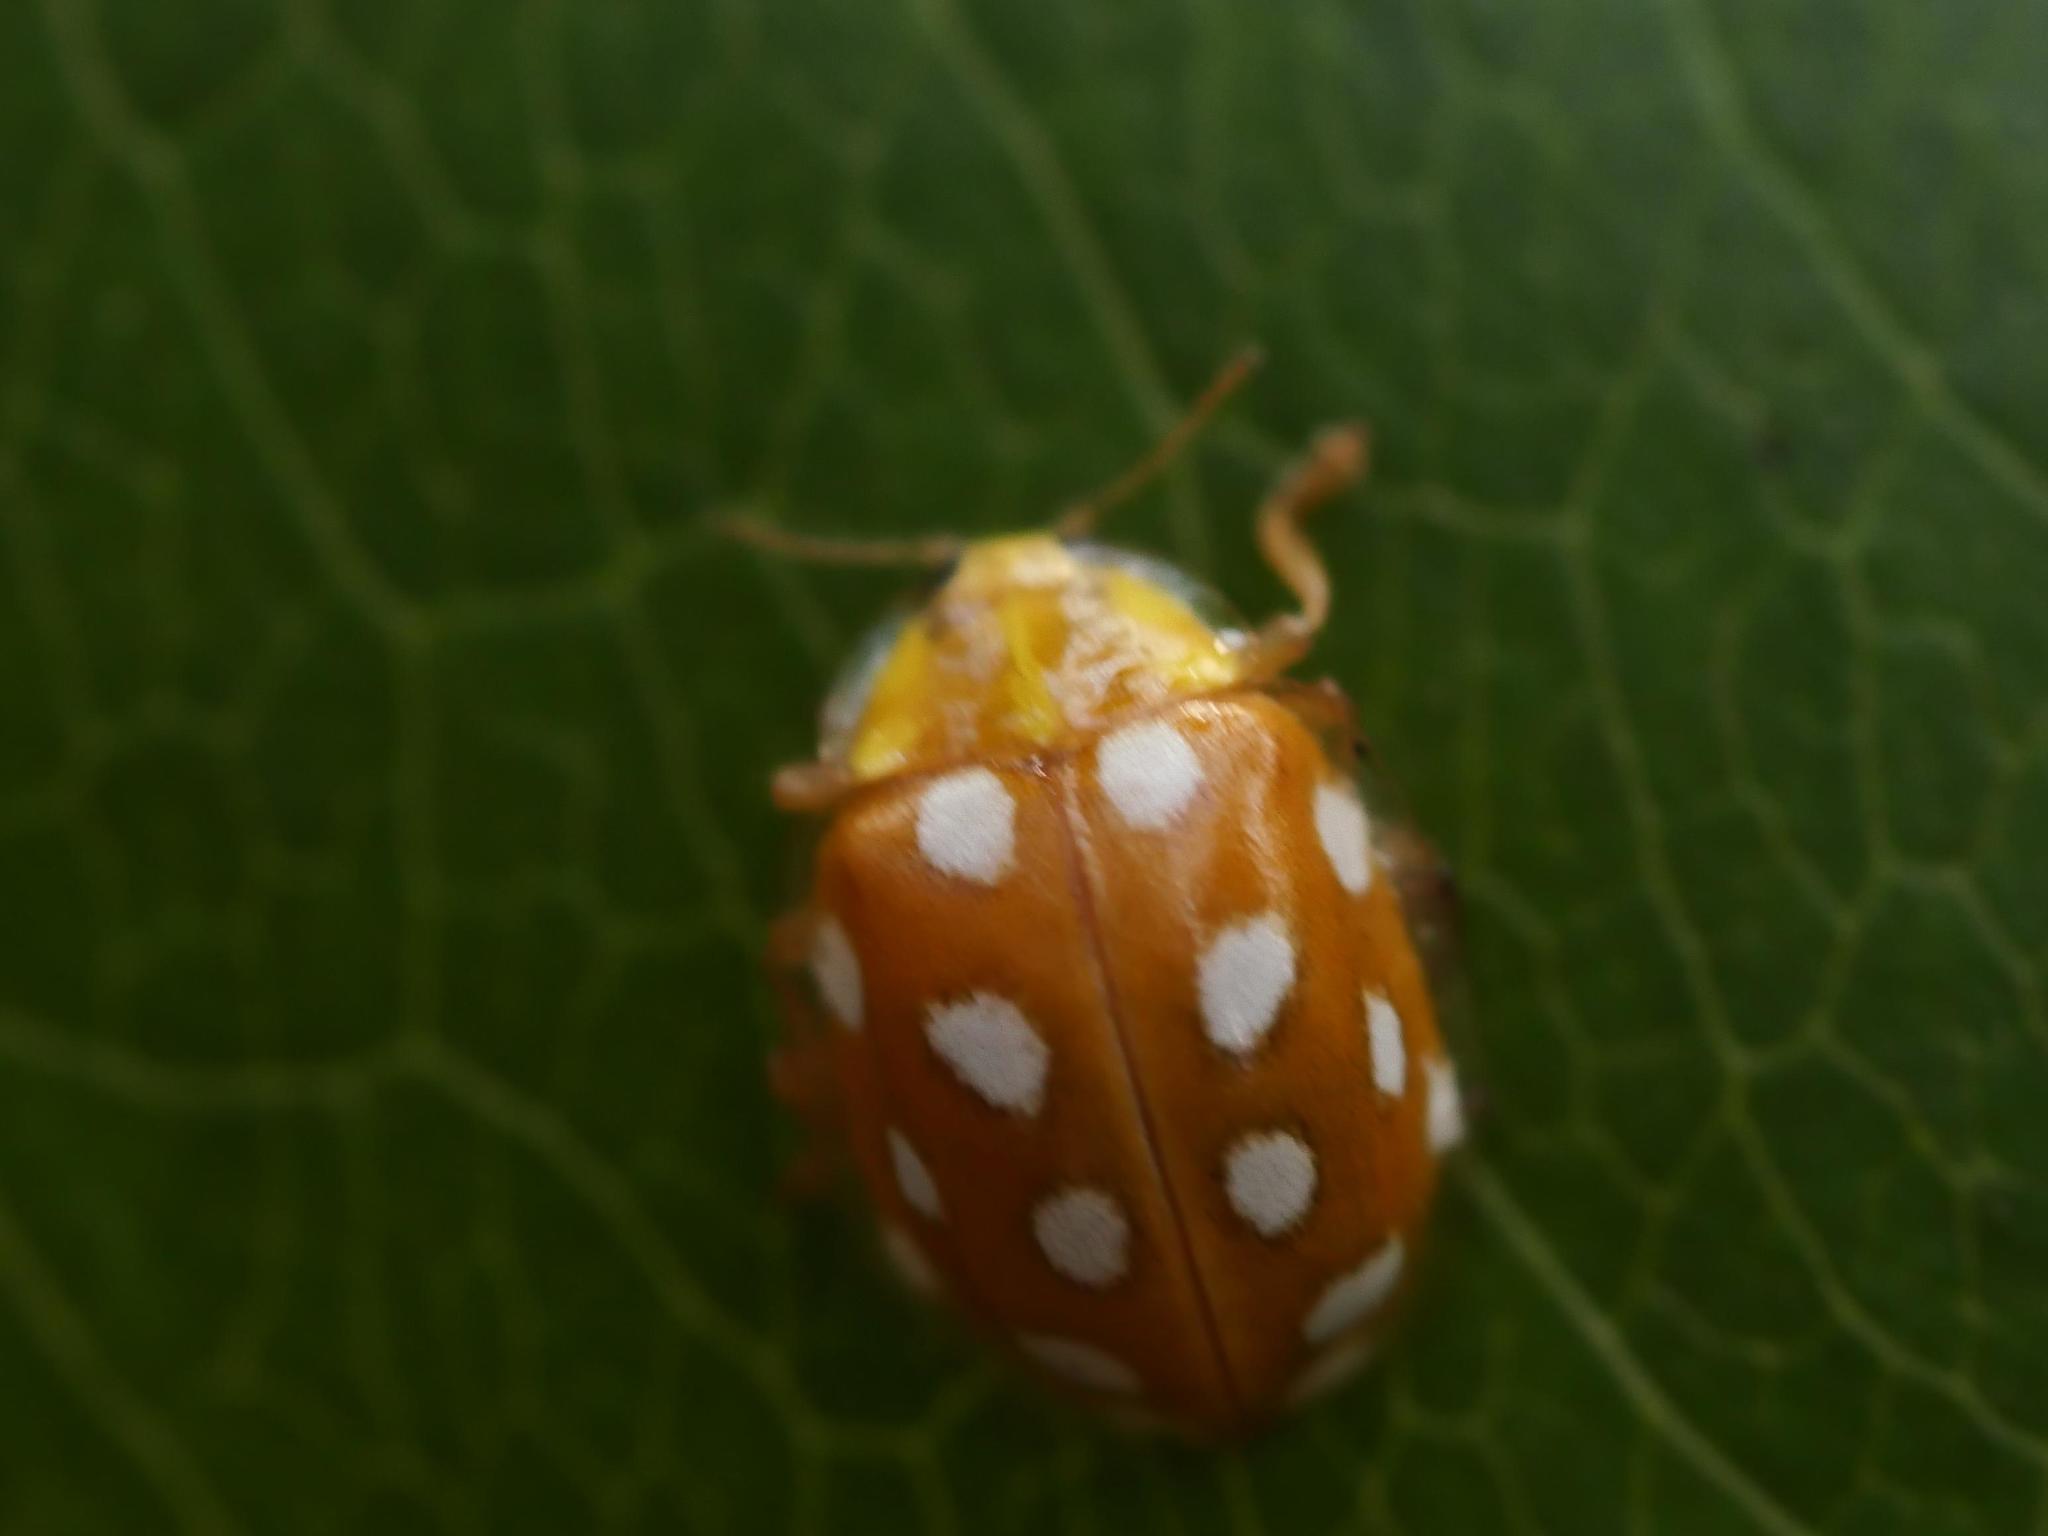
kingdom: Animalia
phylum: Arthropoda
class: Insecta
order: Coleoptera
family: Coccinellidae
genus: Halyzia
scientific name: Halyzia sedecimguttata
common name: Orange ladybird
